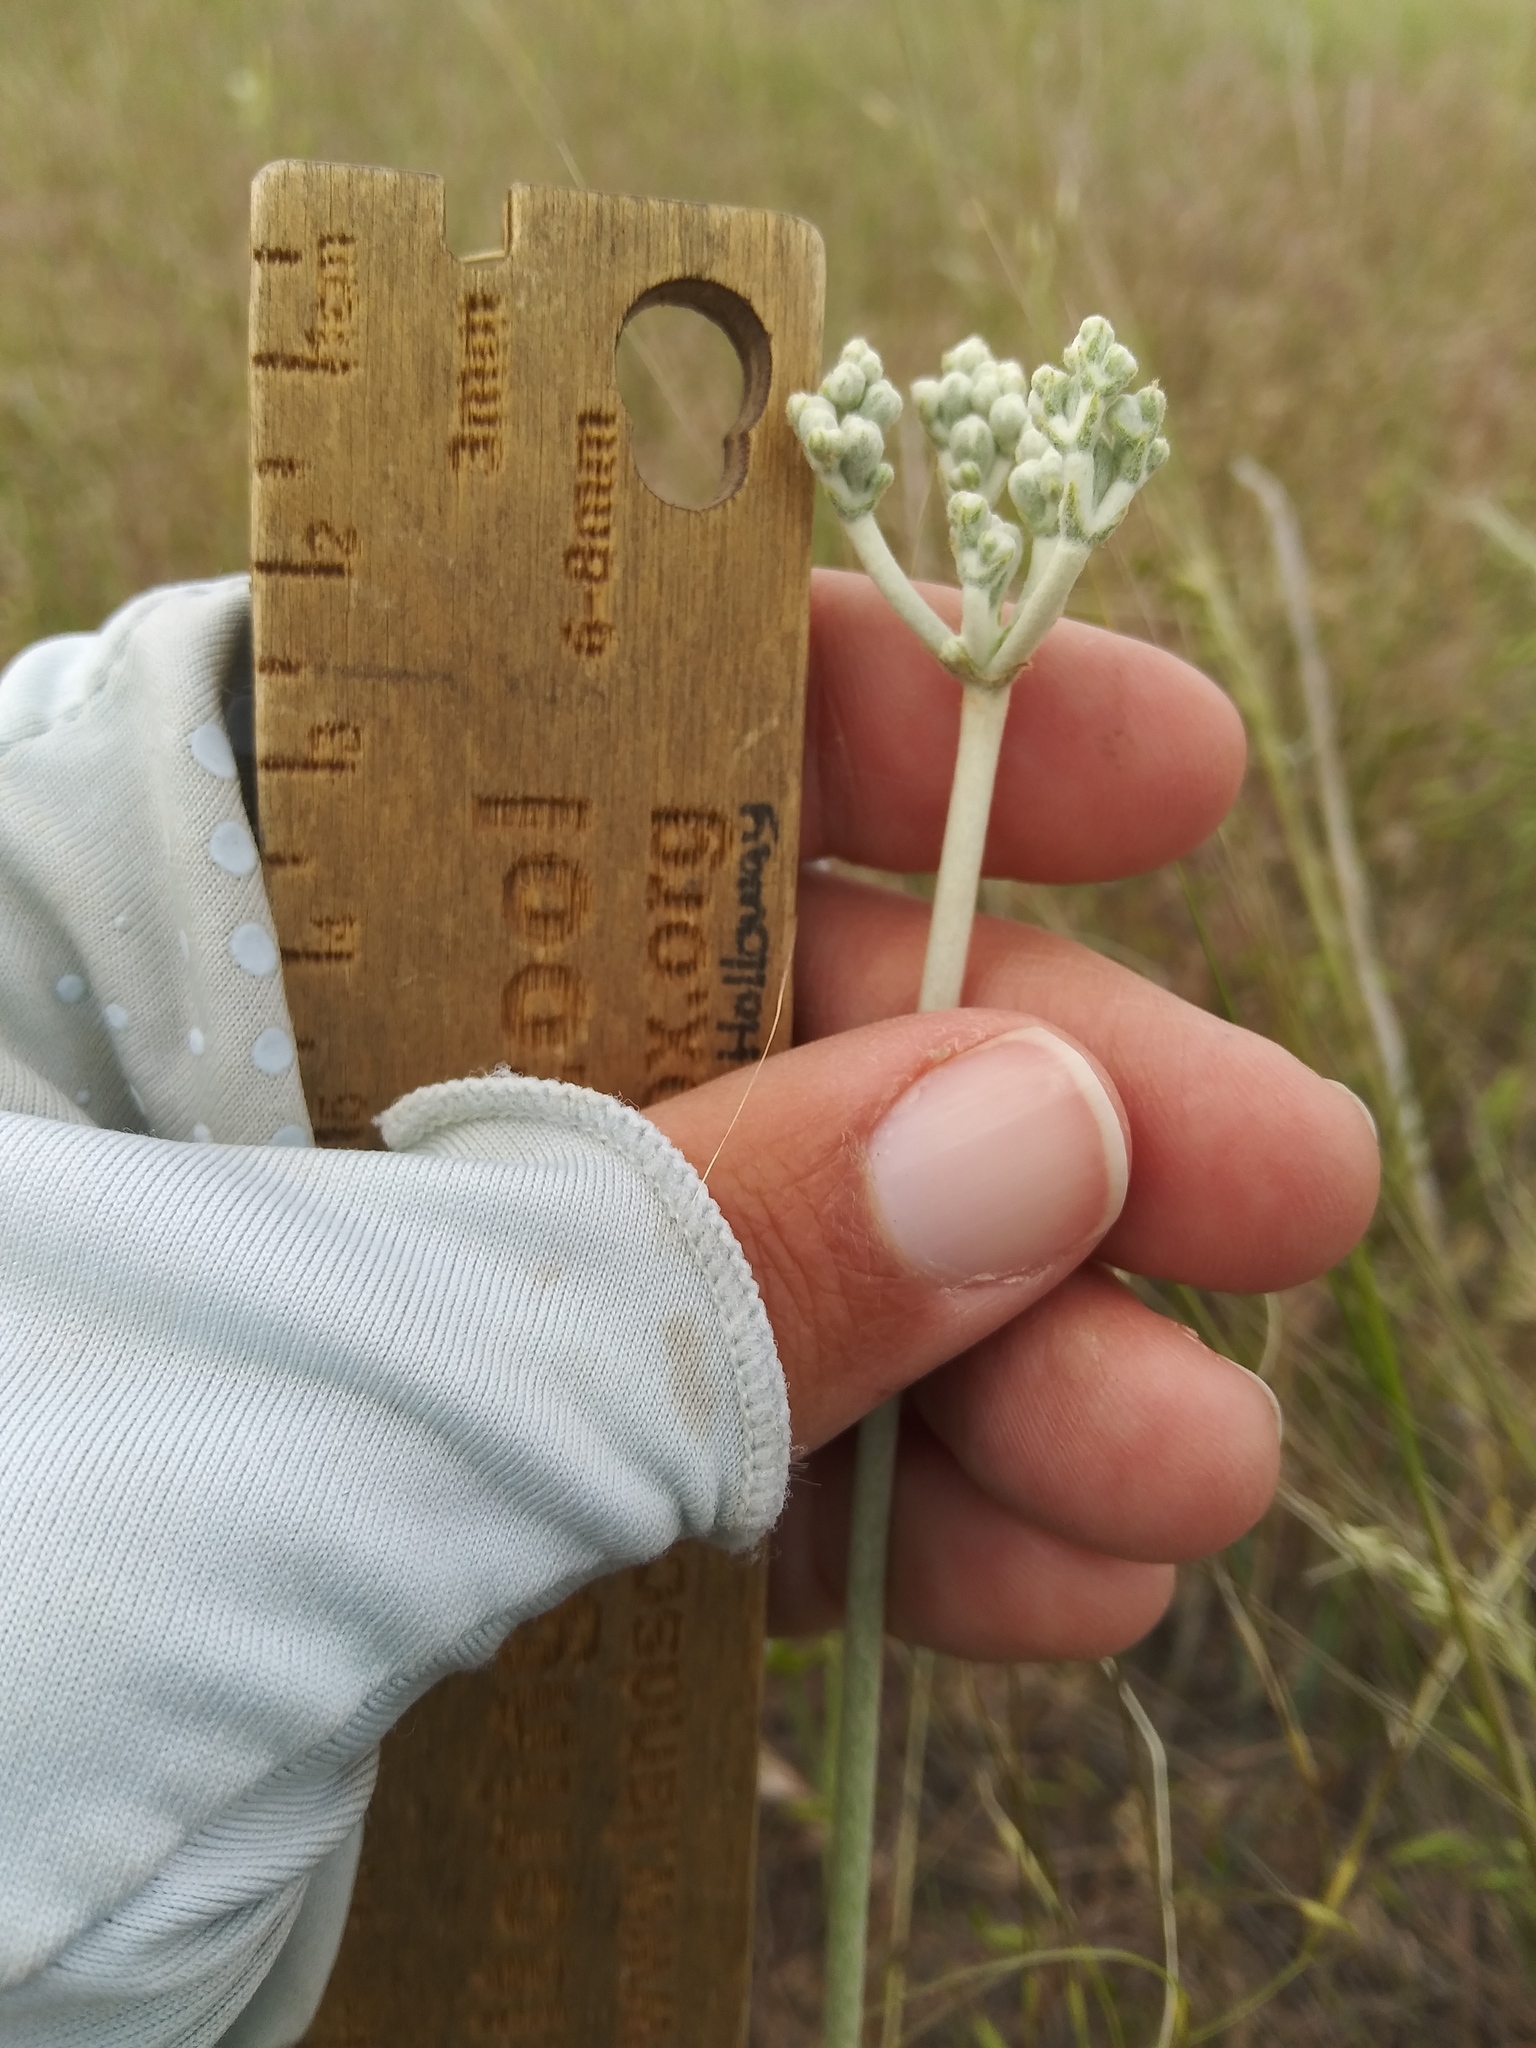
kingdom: Plantae
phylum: Tracheophyta
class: Magnoliopsida
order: Caryophyllales
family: Polygonaceae
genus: Eriogonum
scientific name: Eriogonum annuum
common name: Annual wild buckwheat
